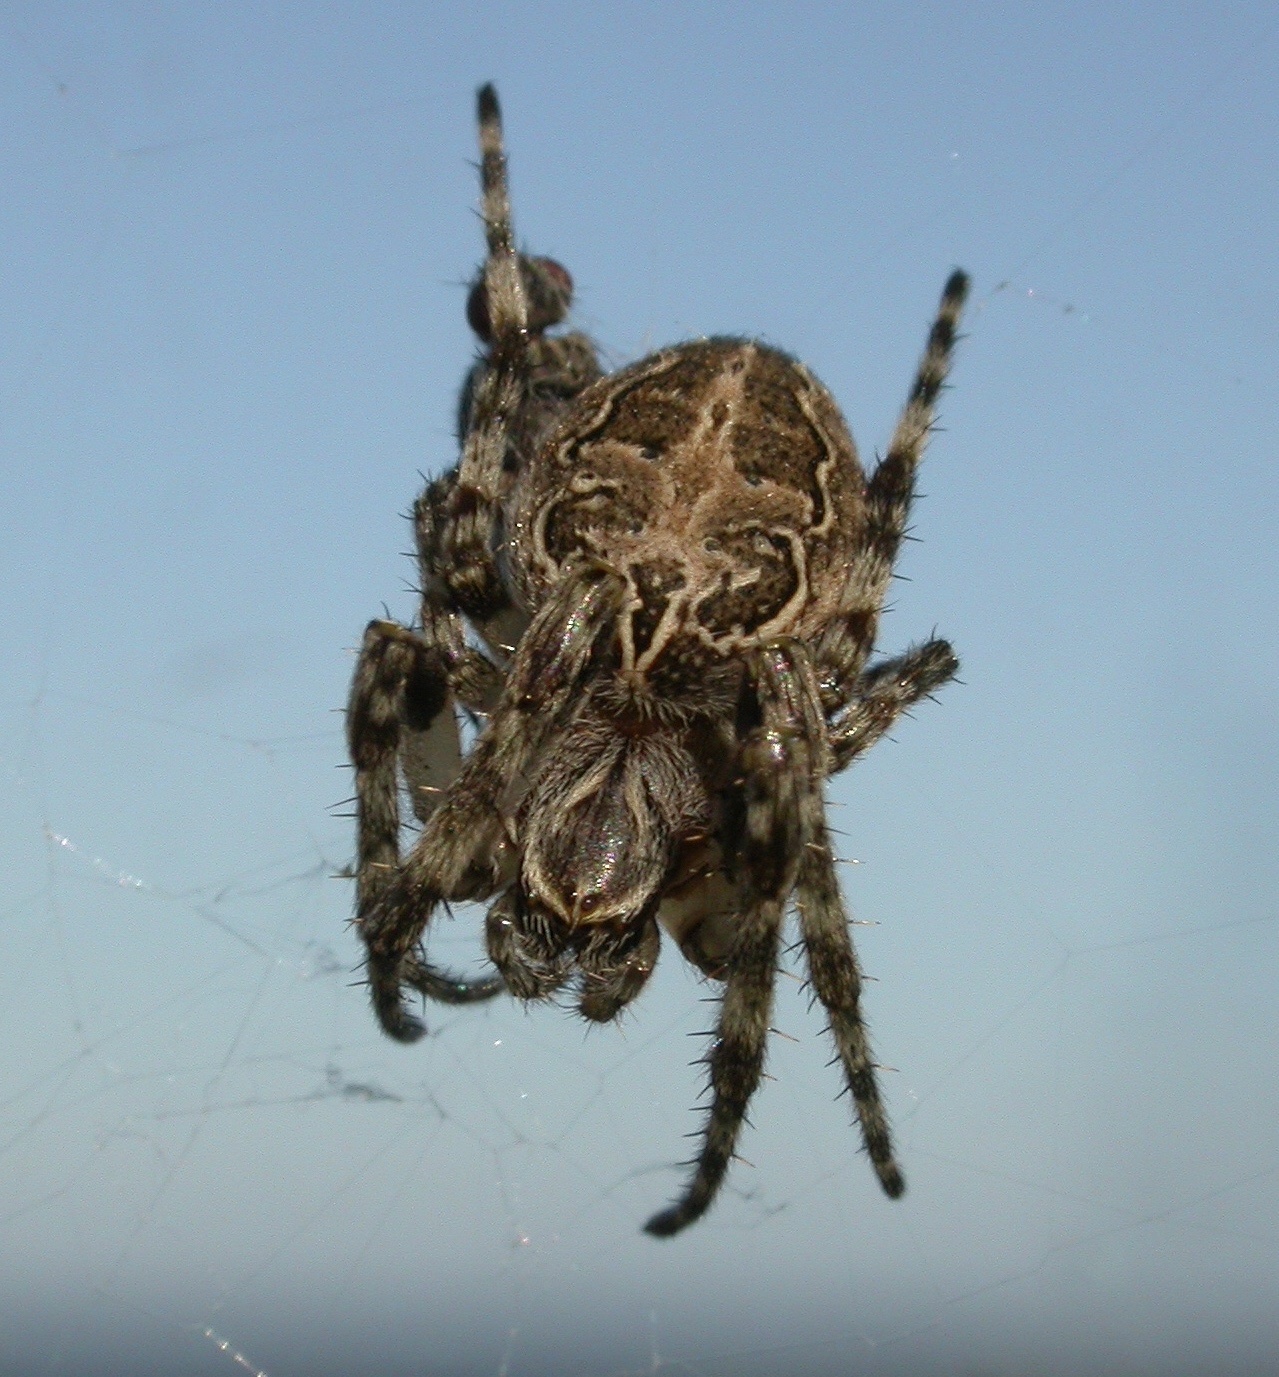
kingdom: Animalia
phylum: Arthropoda
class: Arachnida
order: Araneae
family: Araneidae
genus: Larinioides
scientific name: Larinioides sclopetarius
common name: Bridge orbweaver
